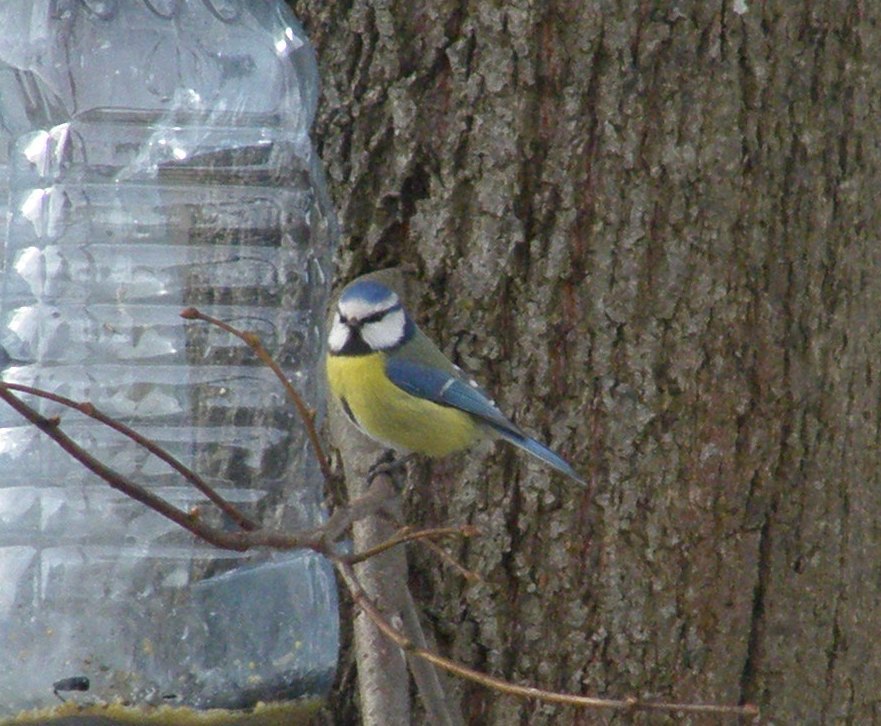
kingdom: Animalia
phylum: Chordata
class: Aves
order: Passeriformes
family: Paridae
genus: Cyanistes
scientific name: Cyanistes caeruleus
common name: Eurasian blue tit
